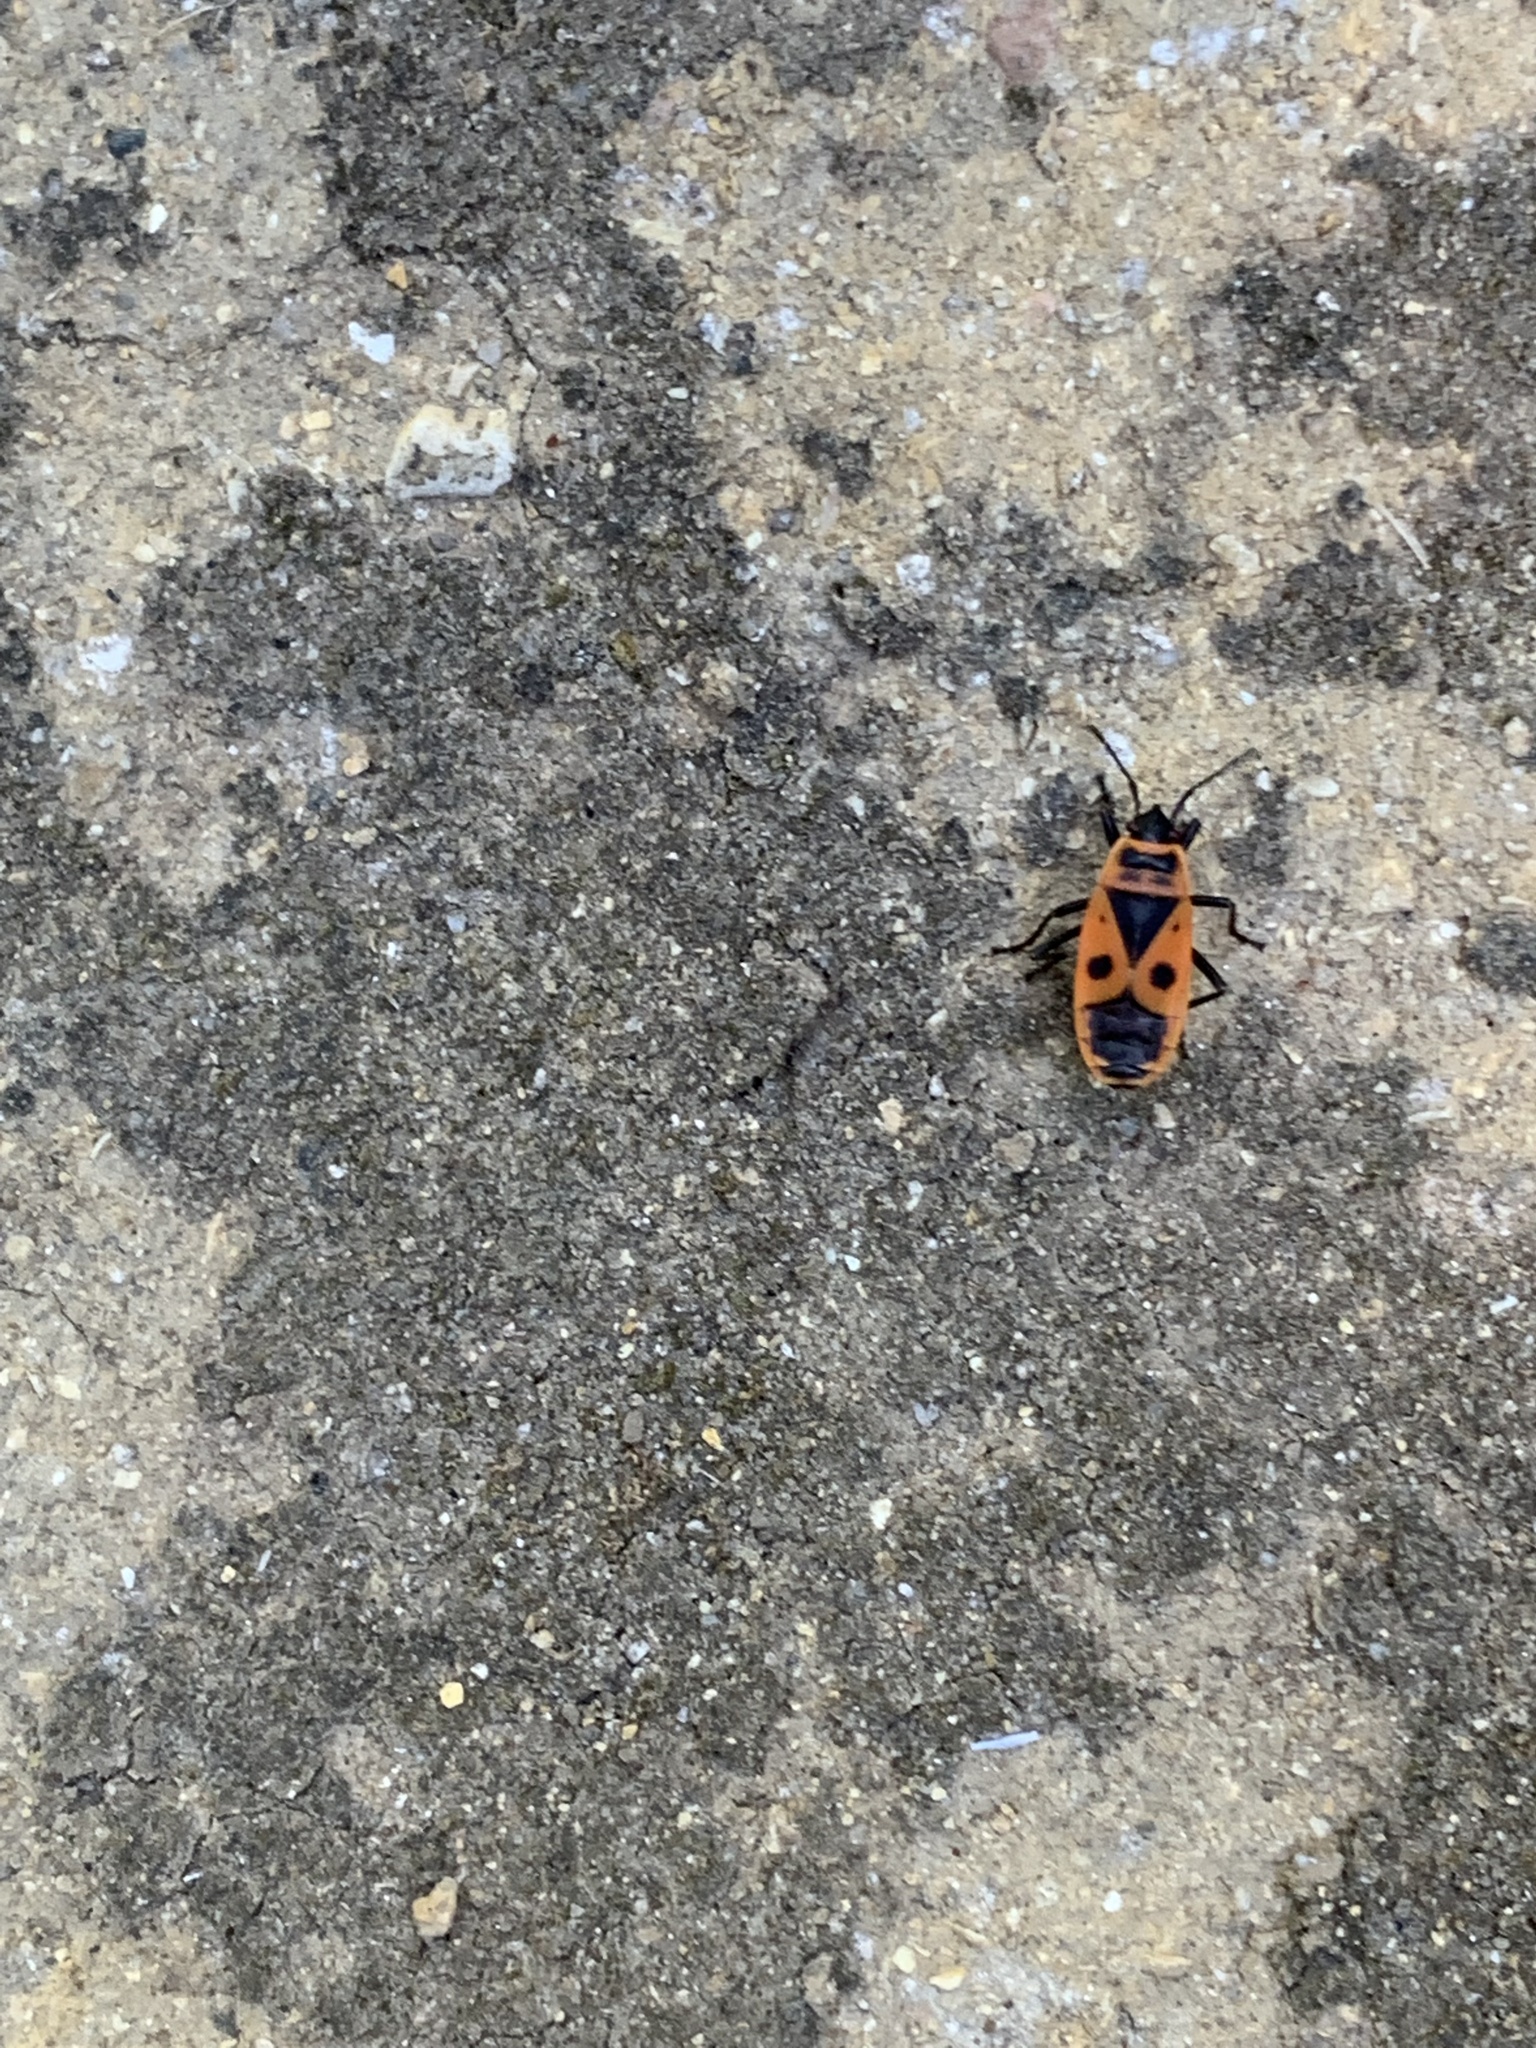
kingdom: Animalia
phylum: Arthropoda
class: Insecta
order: Hemiptera
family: Pyrrhocoridae
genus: Pyrrhocoris
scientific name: Pyrrhocoris apterus
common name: Firebug
